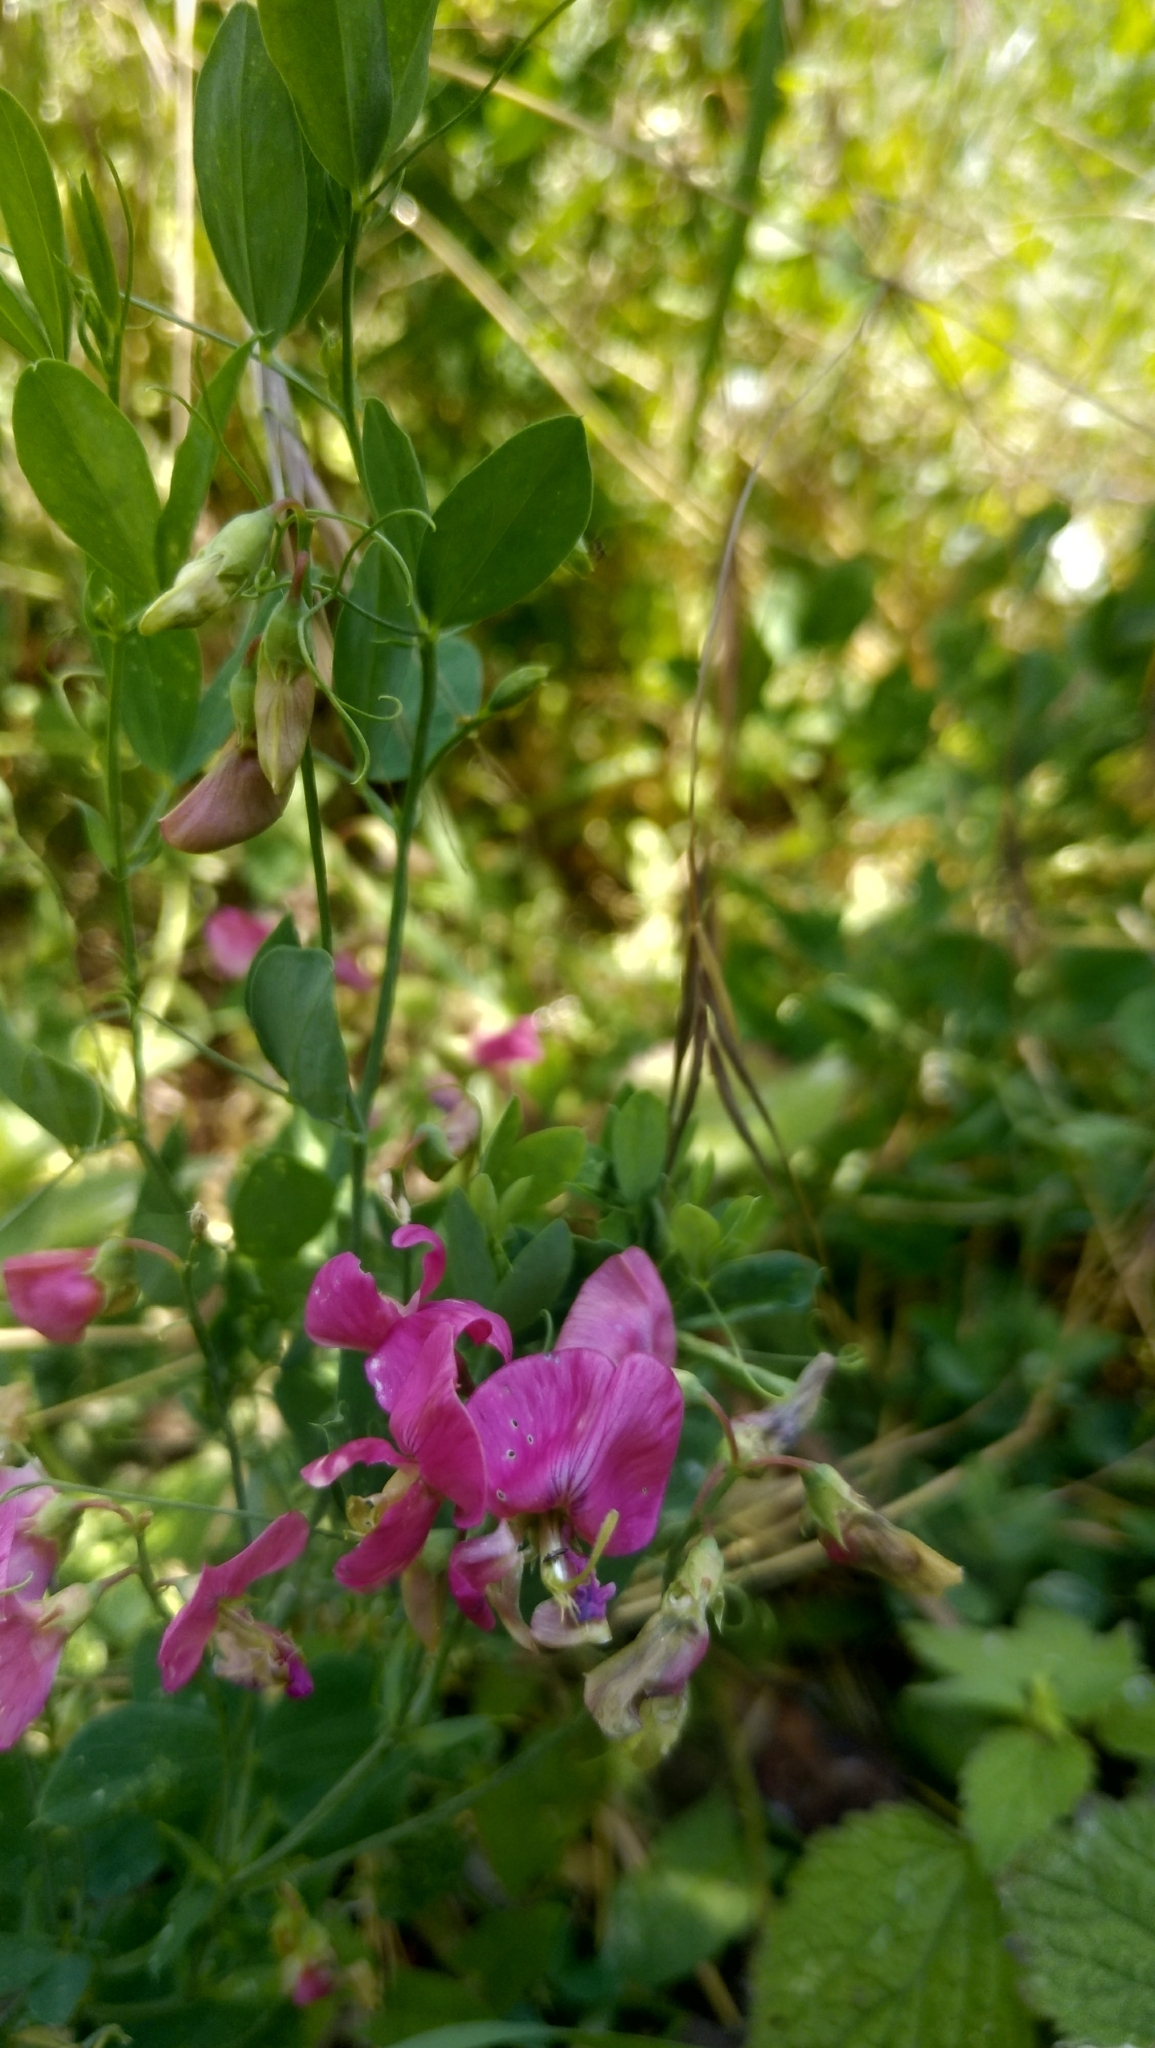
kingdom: Plantae
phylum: Tracheophyta
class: Magnoliopsida
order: Fabales
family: Fabaceae
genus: Lathyrus
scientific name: Lathyrus tuberosus
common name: Tuberous pea
